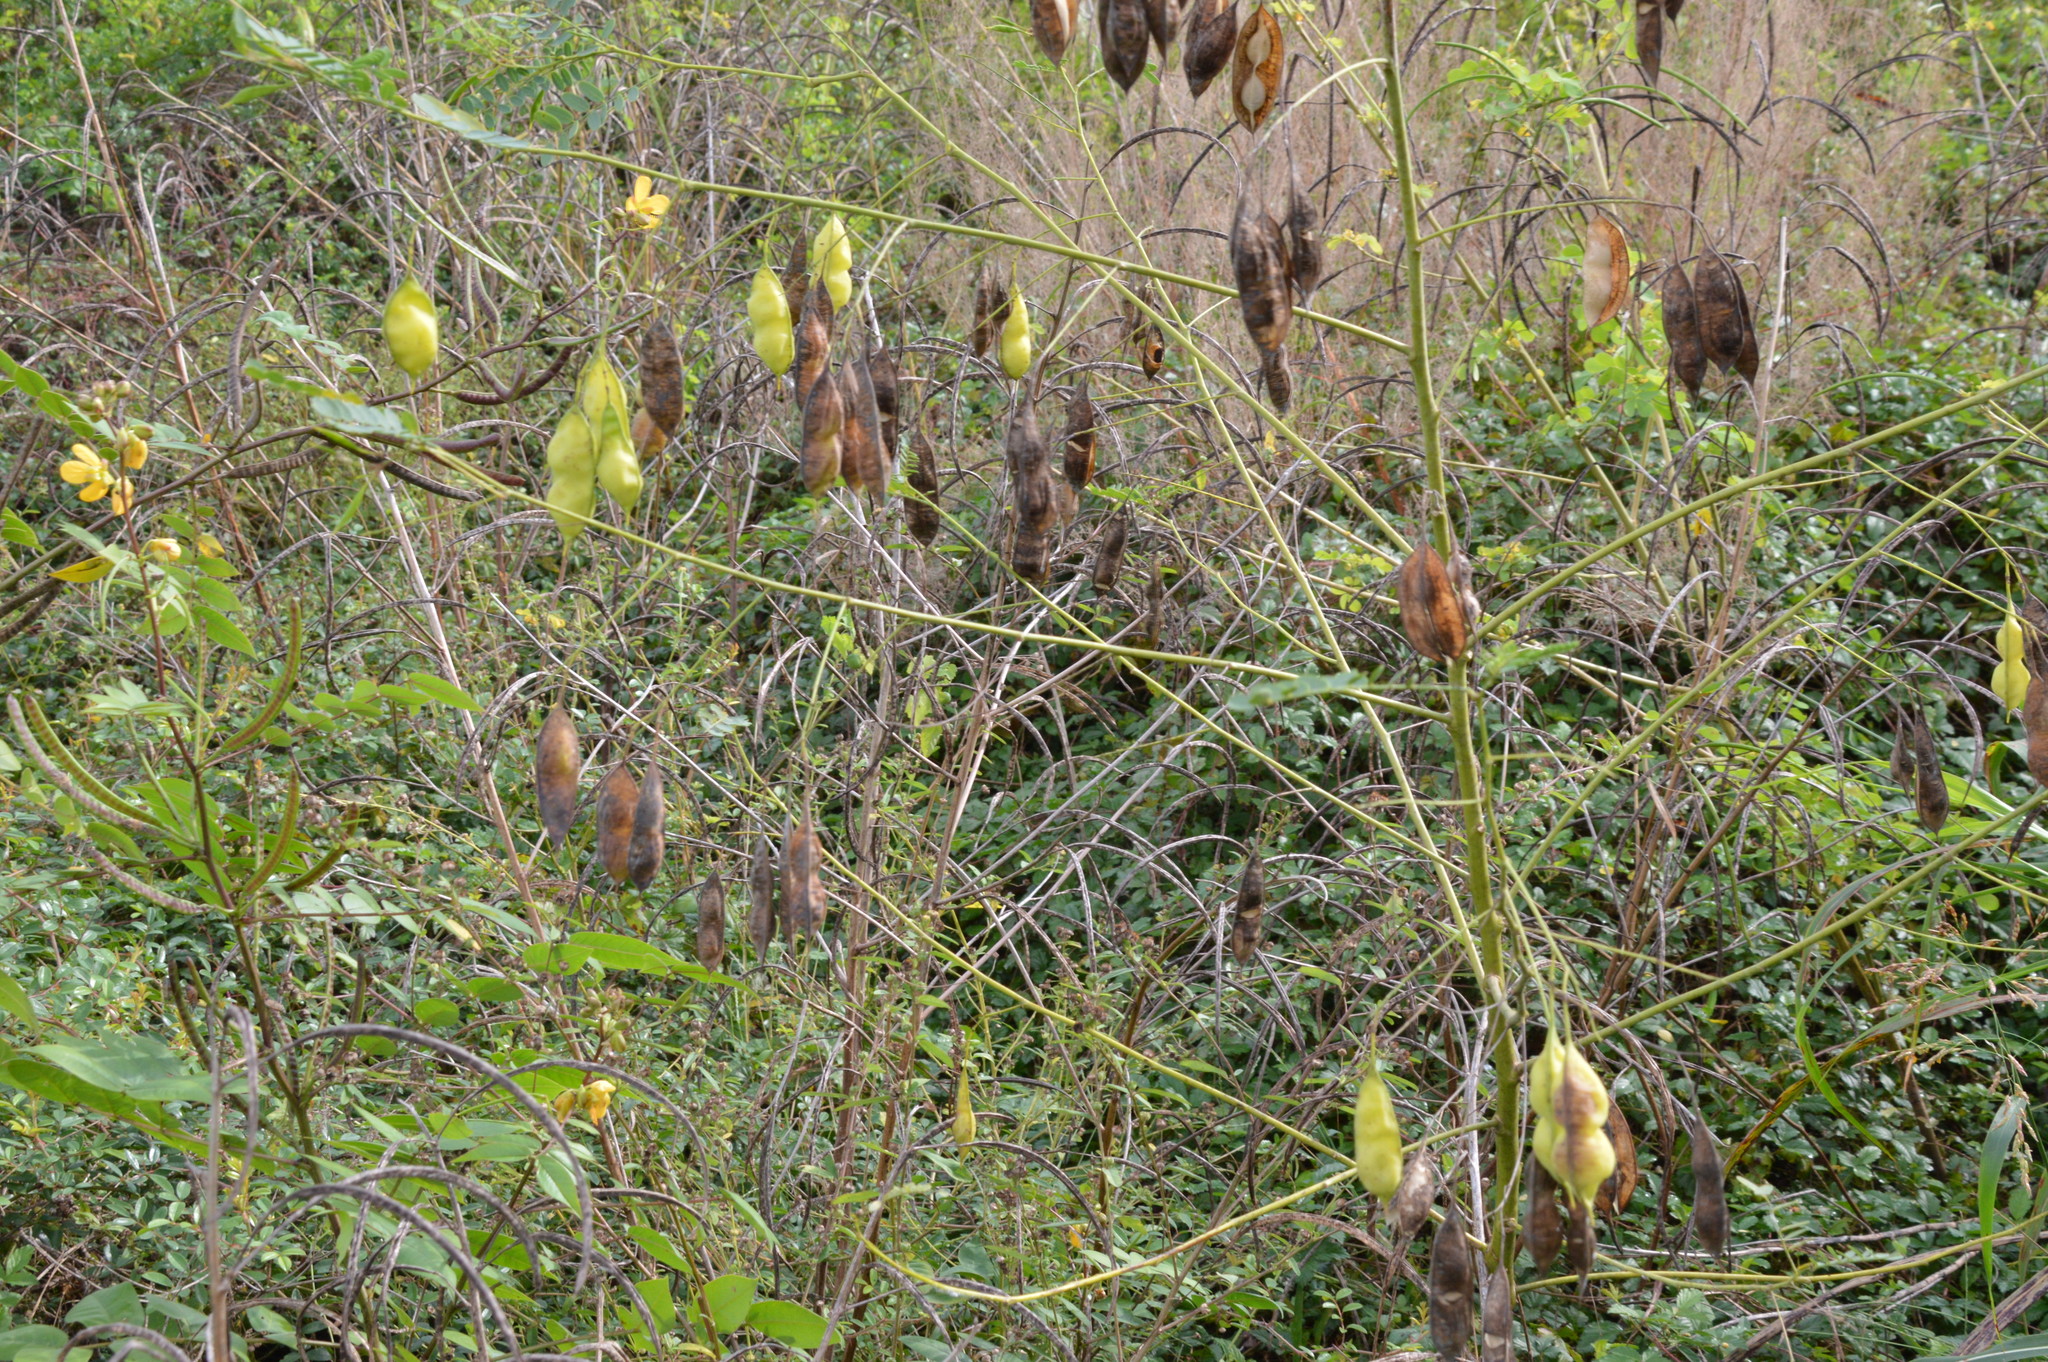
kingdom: Plantae
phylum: Tracheophyta
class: Magnoliopsida
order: Fabales
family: Fabaceae
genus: Sesbania
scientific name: Sesbania vesicaria
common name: Bagpod
